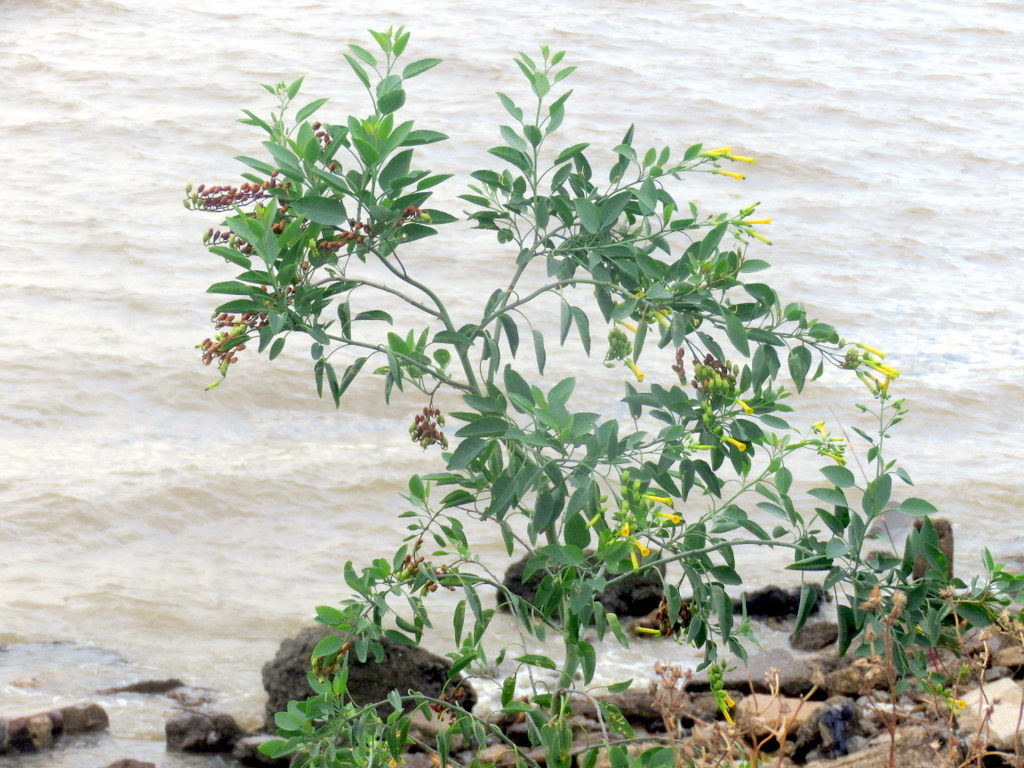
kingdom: Plantae
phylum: Tracheophyta
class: Magnoliopsida
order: Solanales
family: Solanaceae
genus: Nicotiana
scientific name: Nicotiana glauca
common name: Tree tobacco
